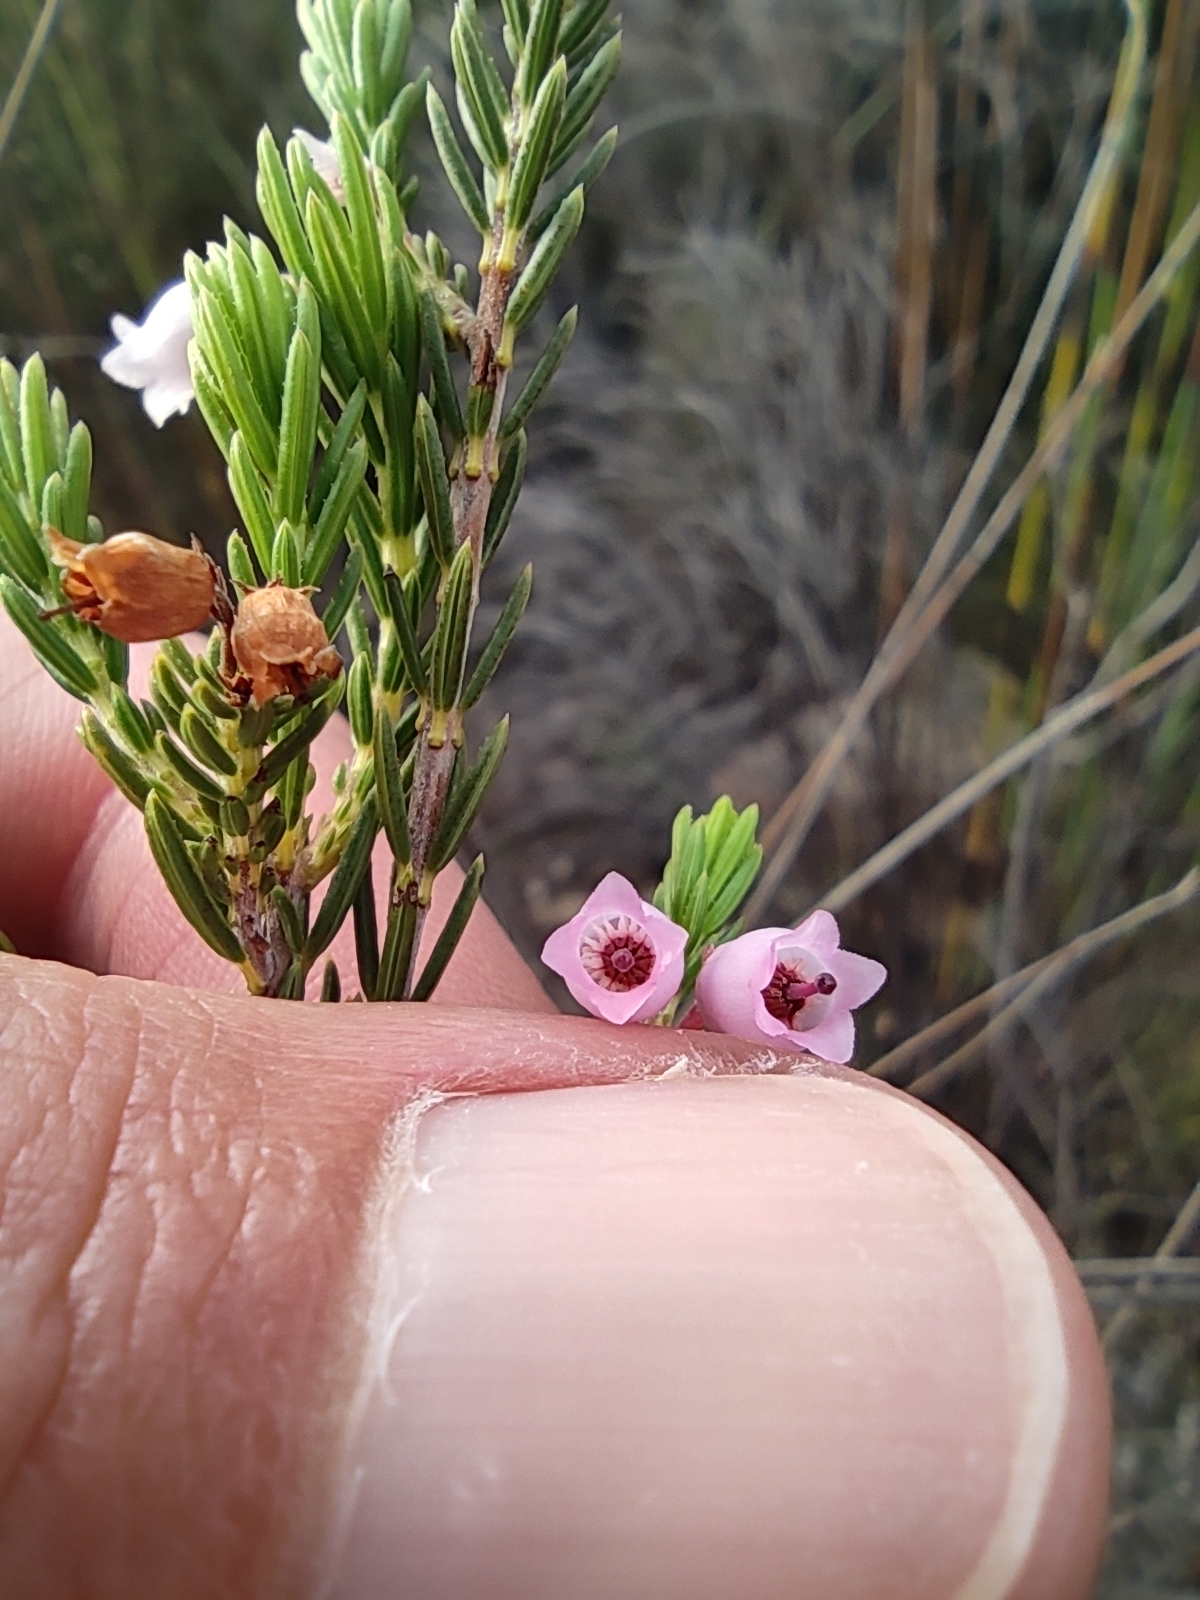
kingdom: Plantae
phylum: Tracheophyta
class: Magnoliopsida
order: Ericales
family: Ericaceae
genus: Erica
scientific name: Erica verecunda
